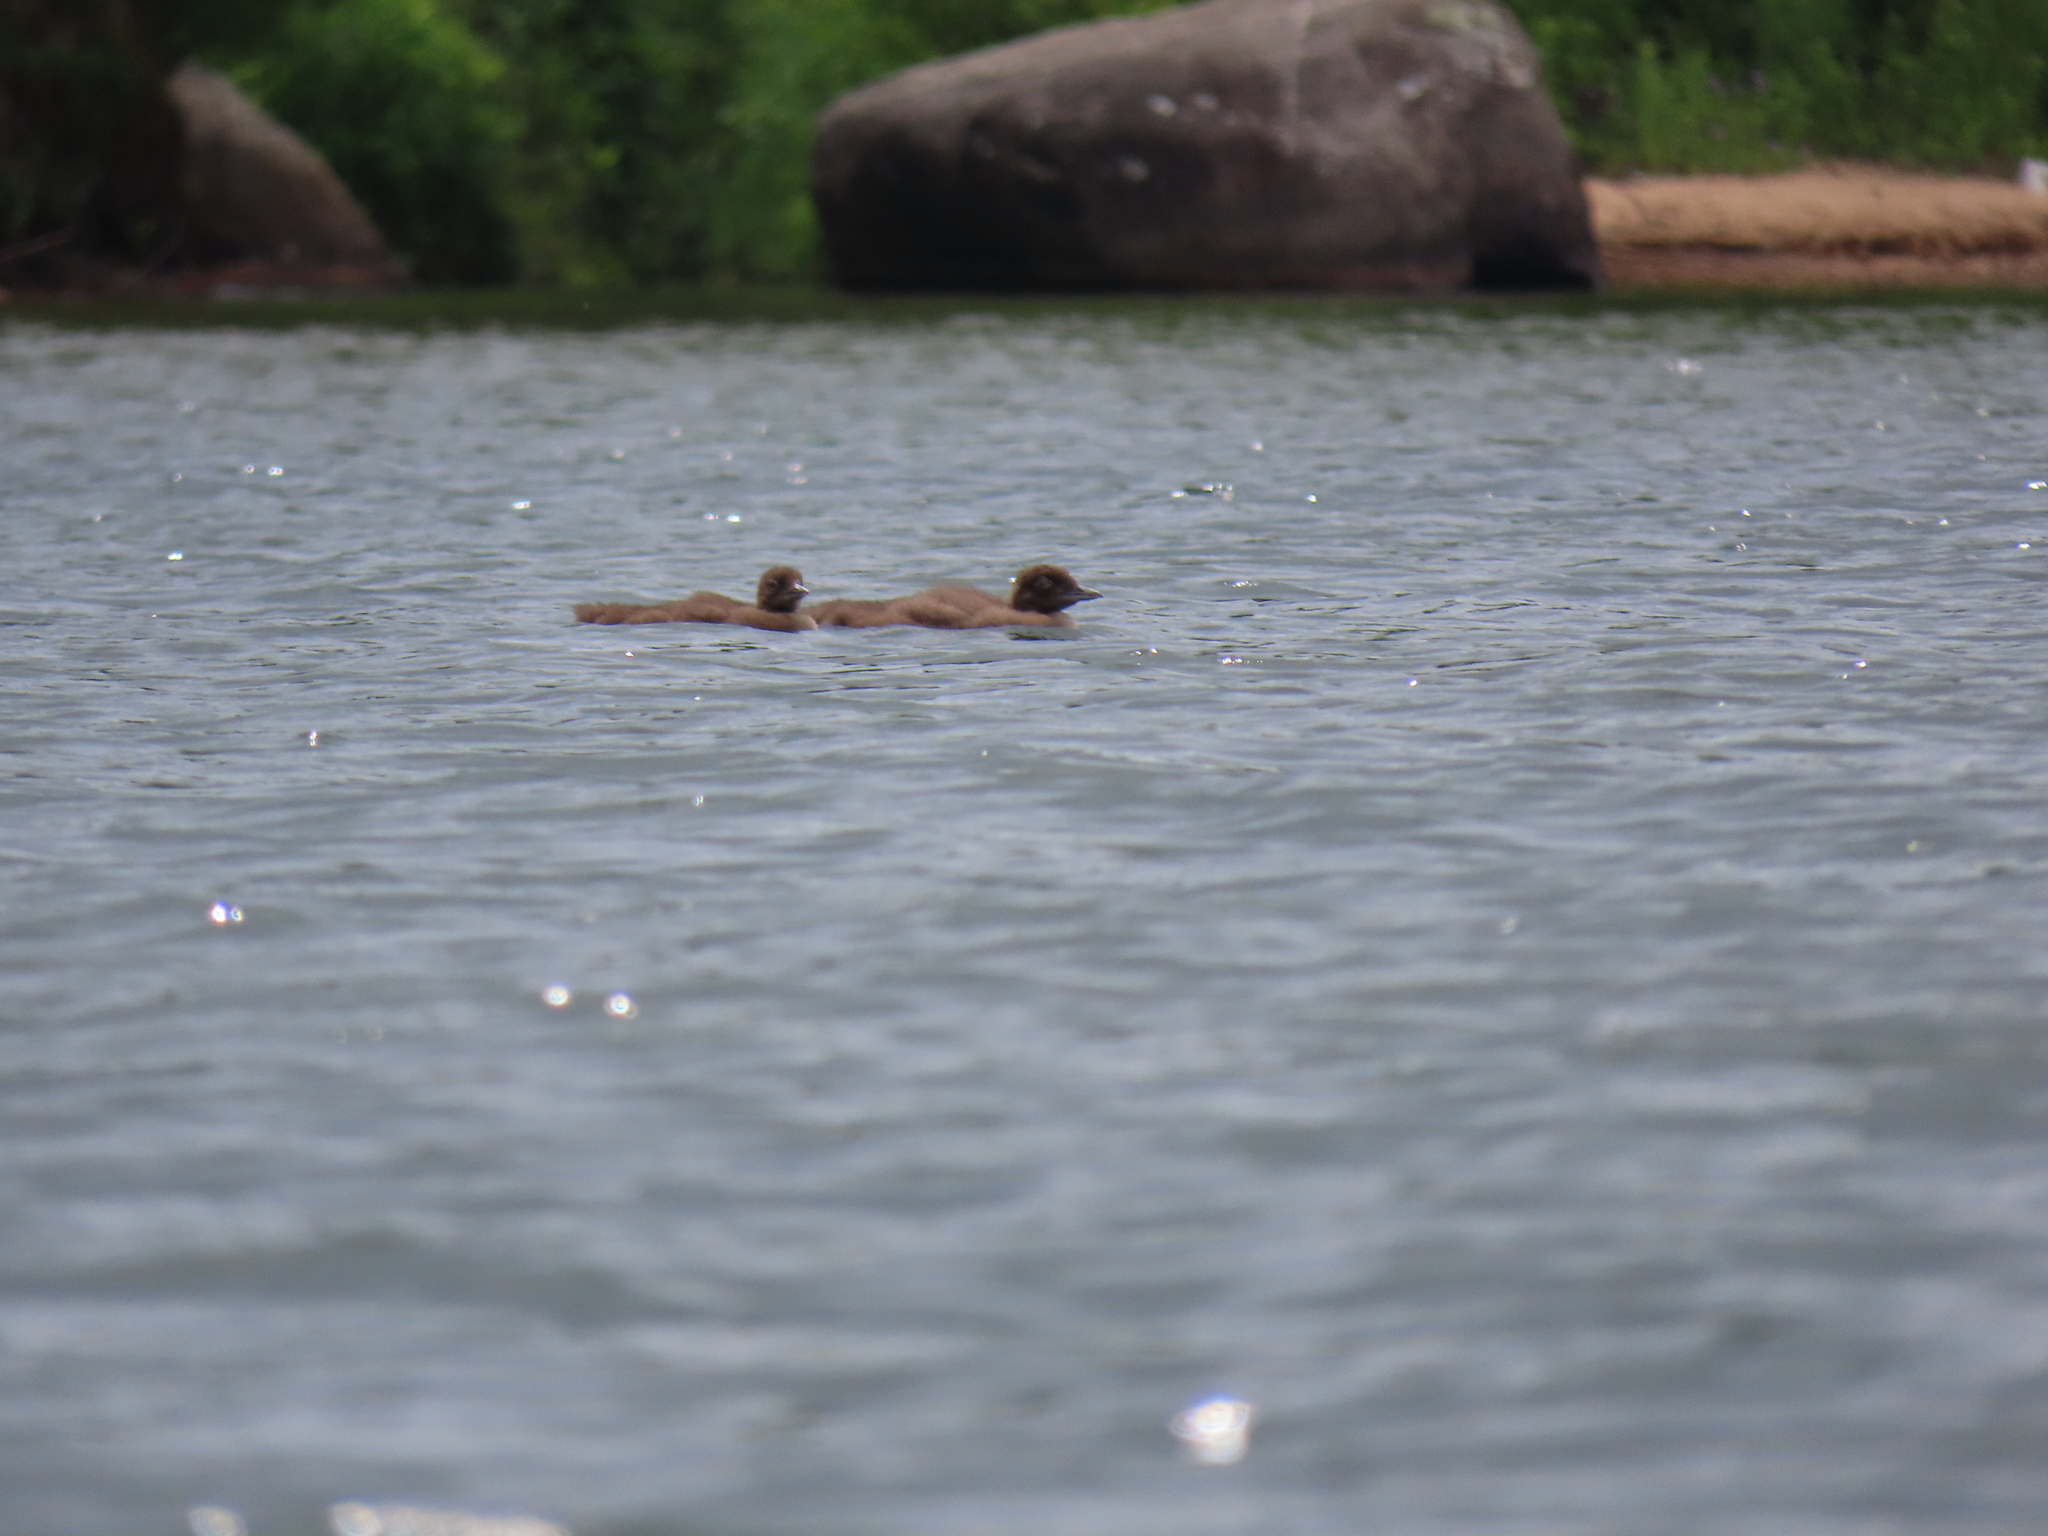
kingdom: Animalia
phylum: Chordata
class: Aves
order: Gaviiformes
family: Gaviidae
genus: Gavia
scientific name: Gavia immer
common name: Common loon
